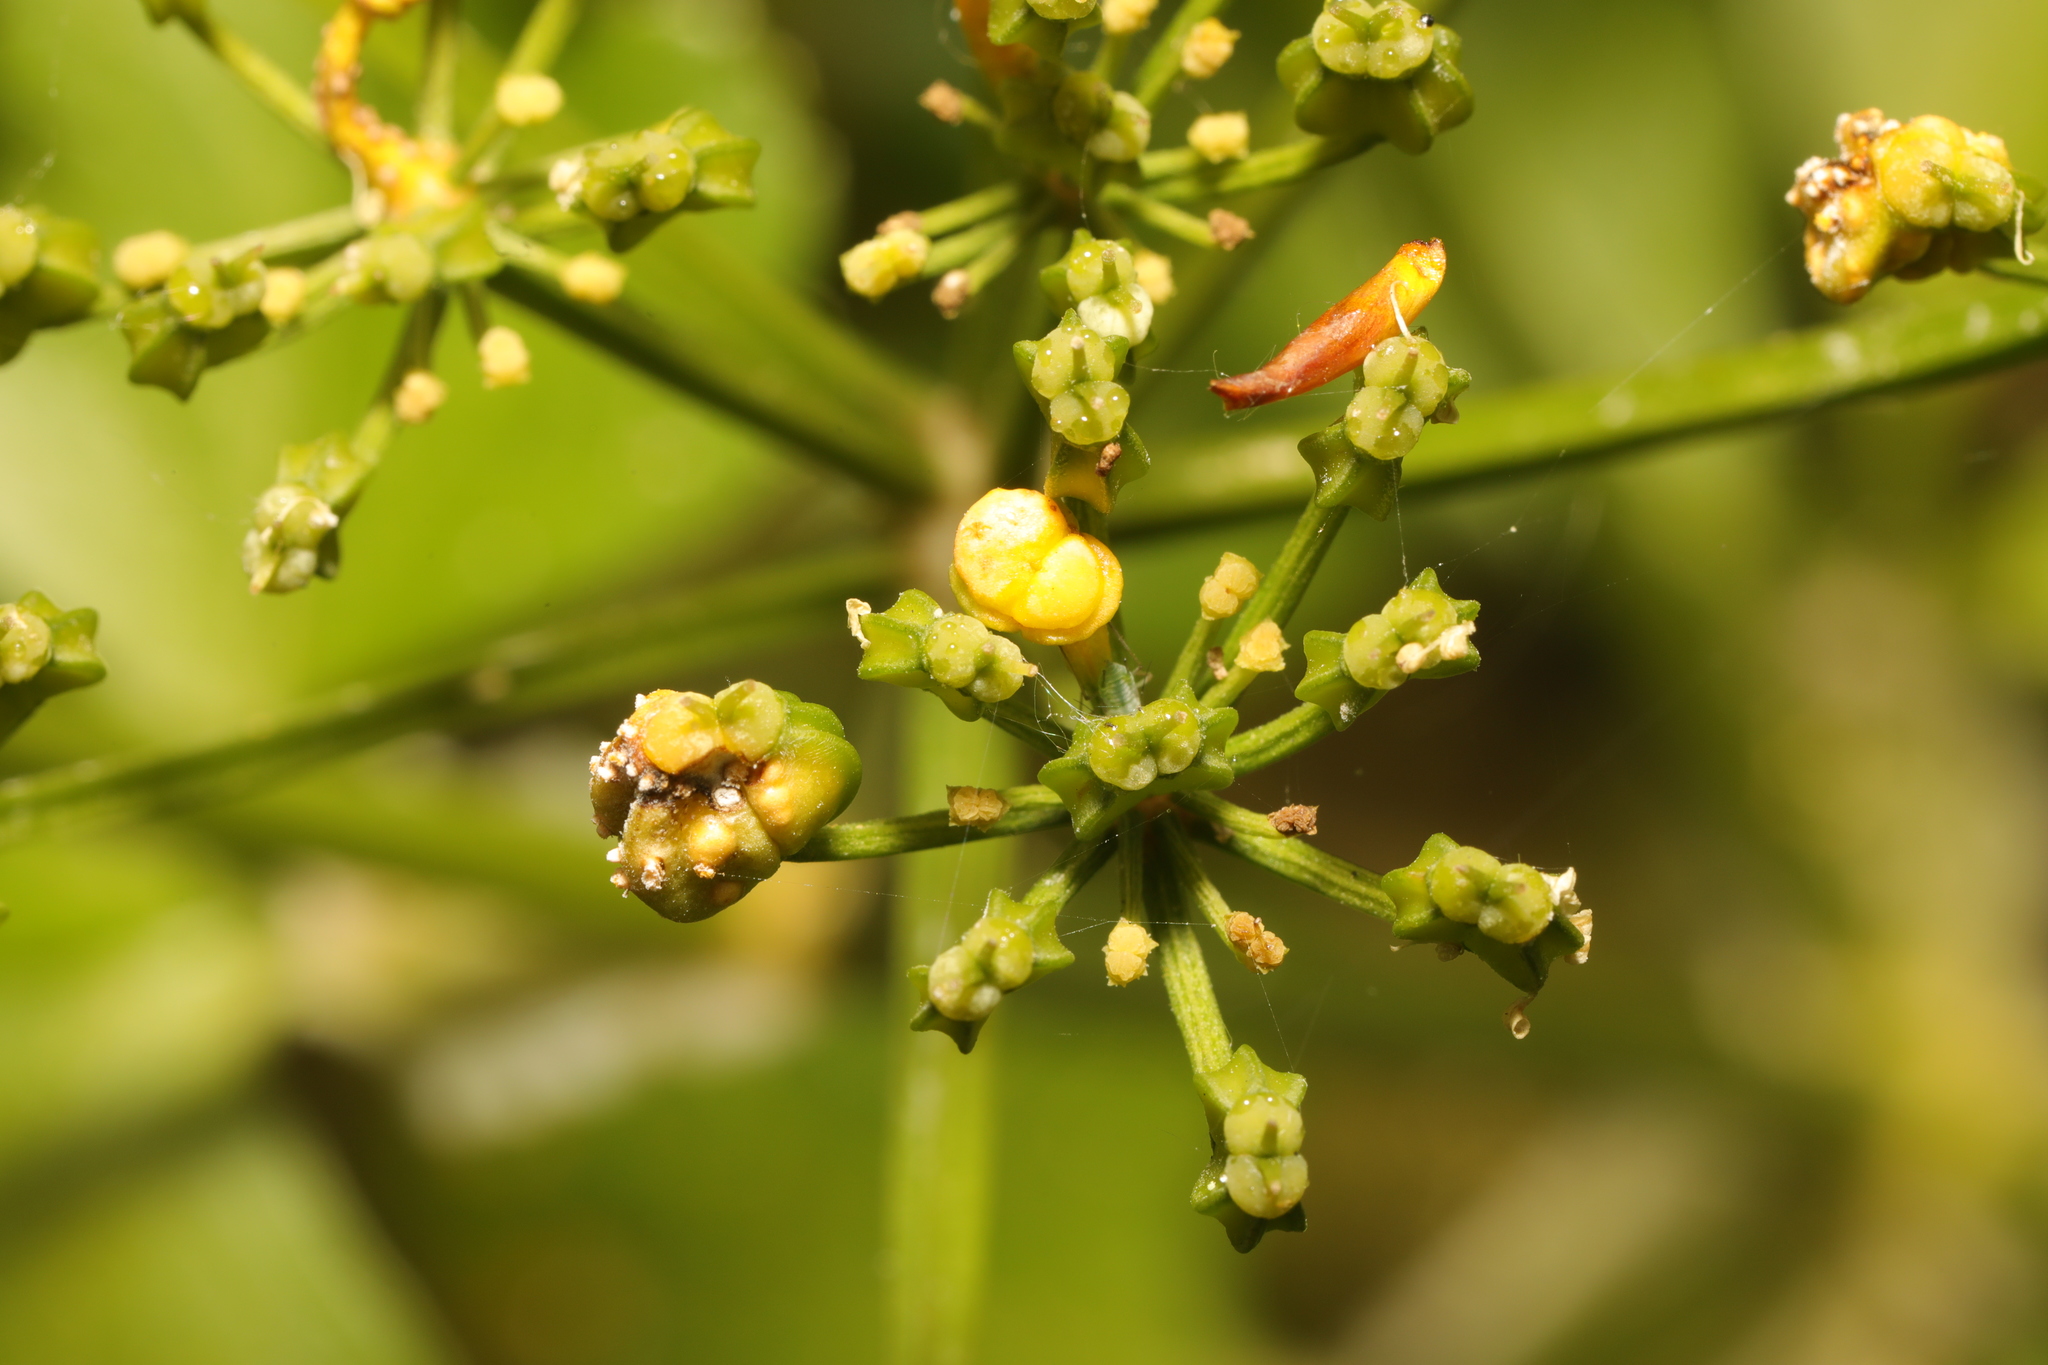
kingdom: Fungi
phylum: Basidiomycota
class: Pucciniomycetes
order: Pucciniales
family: Pucciniaceae
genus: Puccinia
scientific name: Puccinia smyrnii
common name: Alexanders rust
